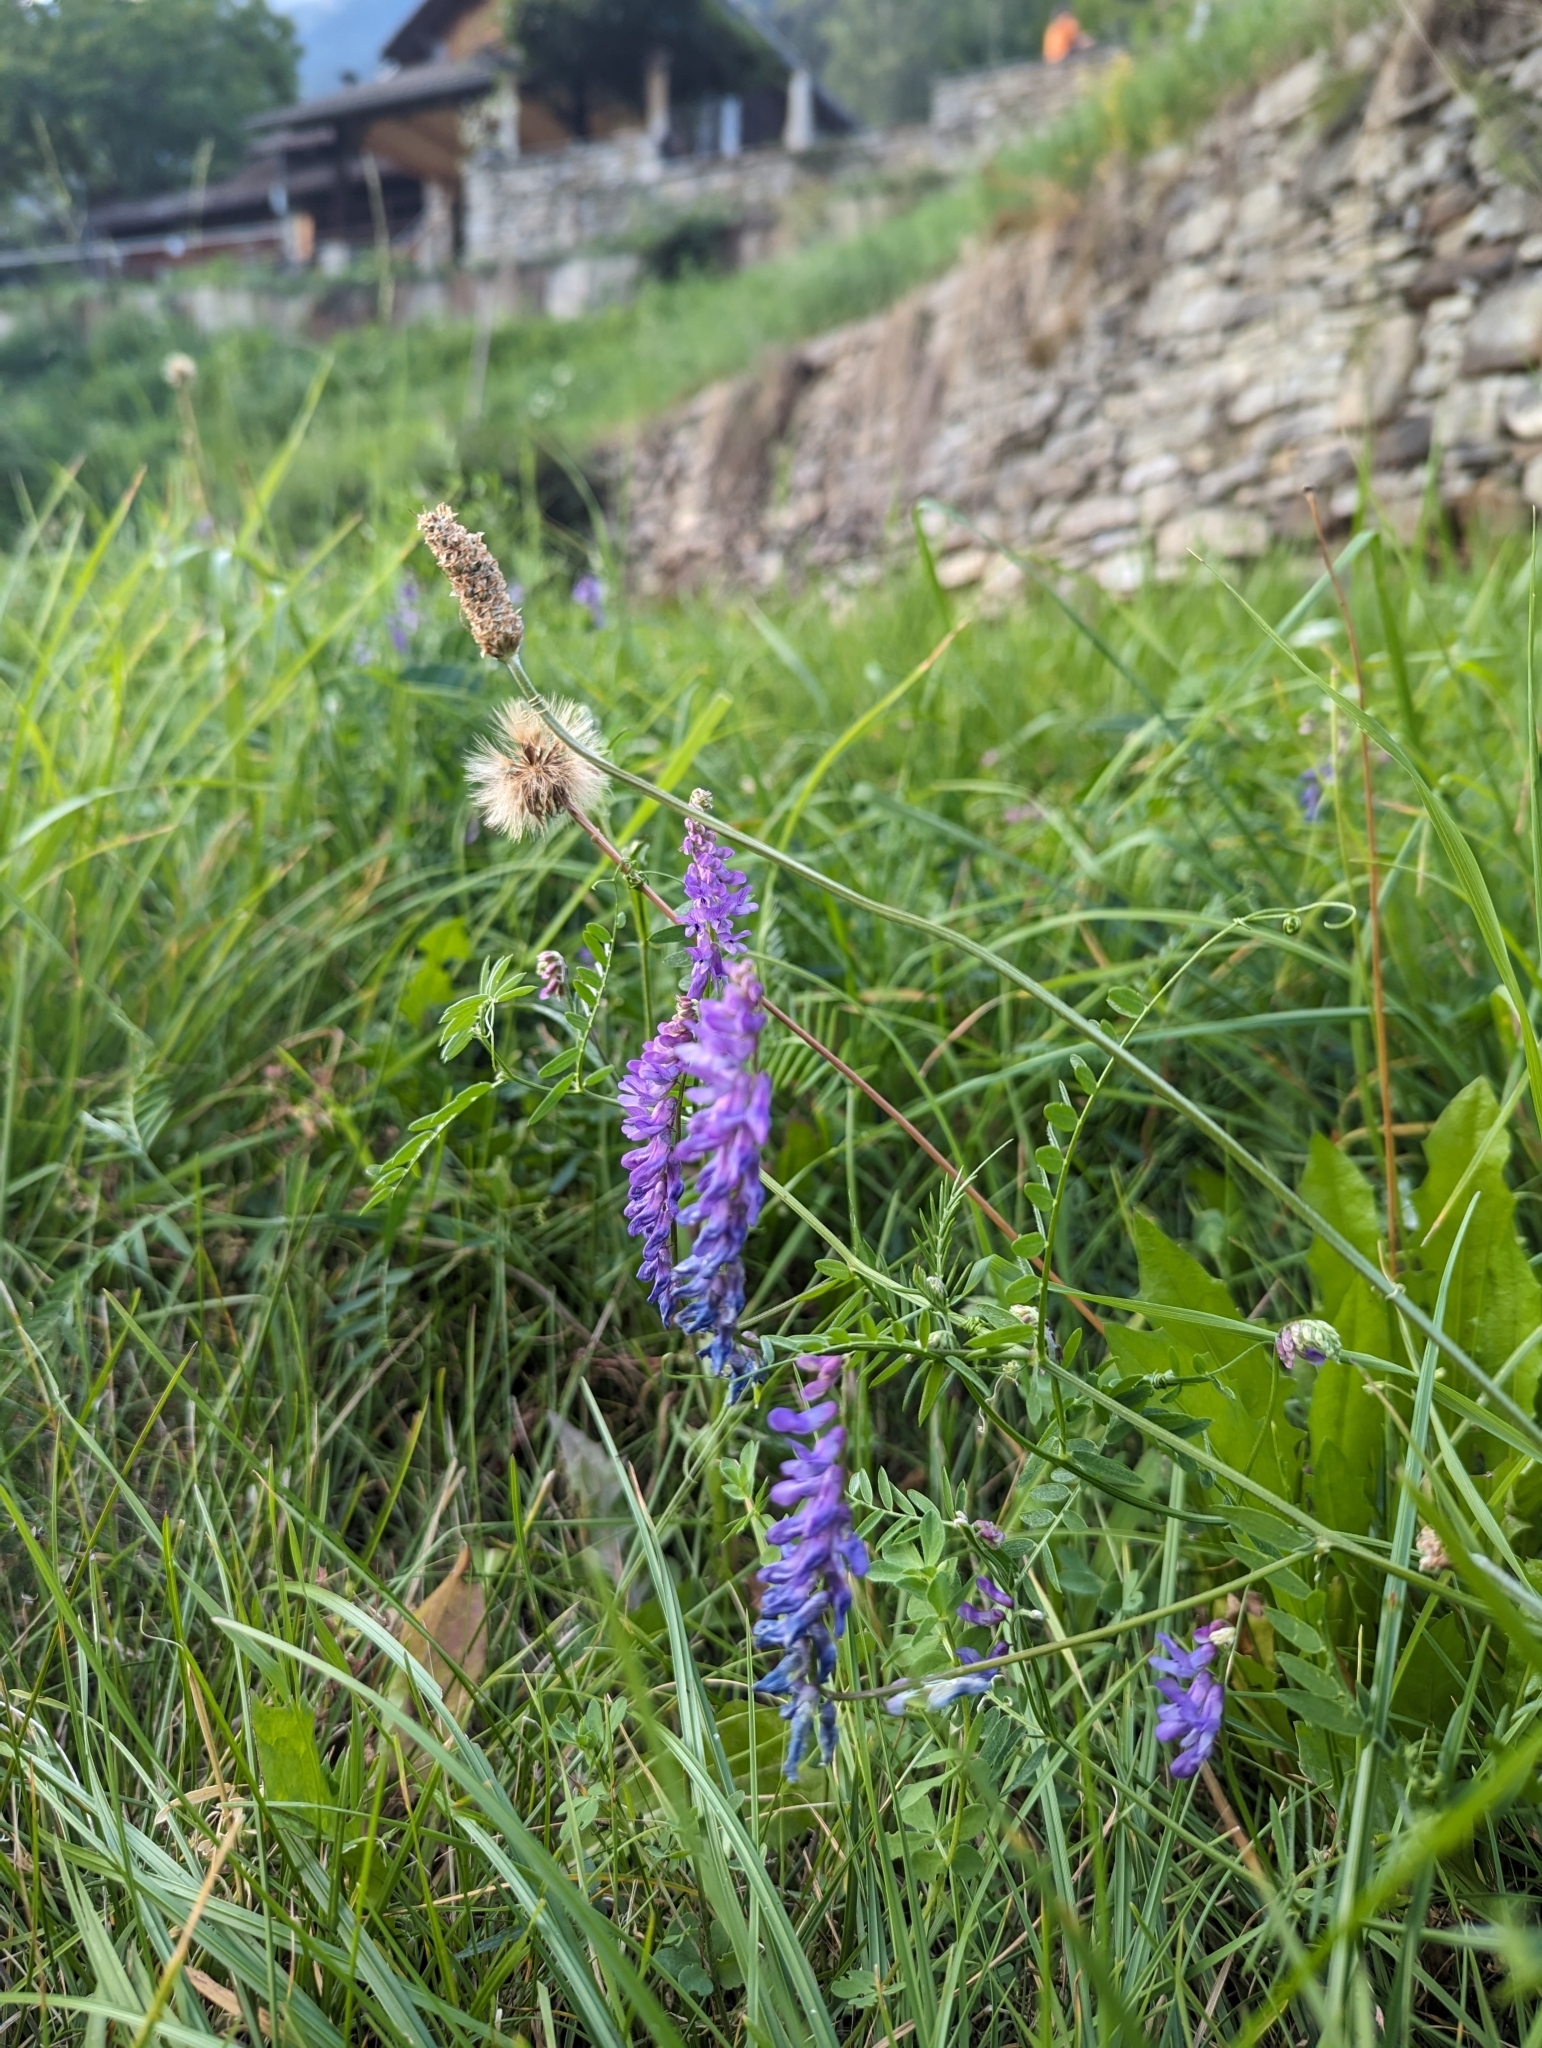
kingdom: Plantae
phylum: Tracheophyta
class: Magnoliopsida
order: Fabales
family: Fabaceae
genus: Vicia
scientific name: Vicia cracca
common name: Bird vetch
